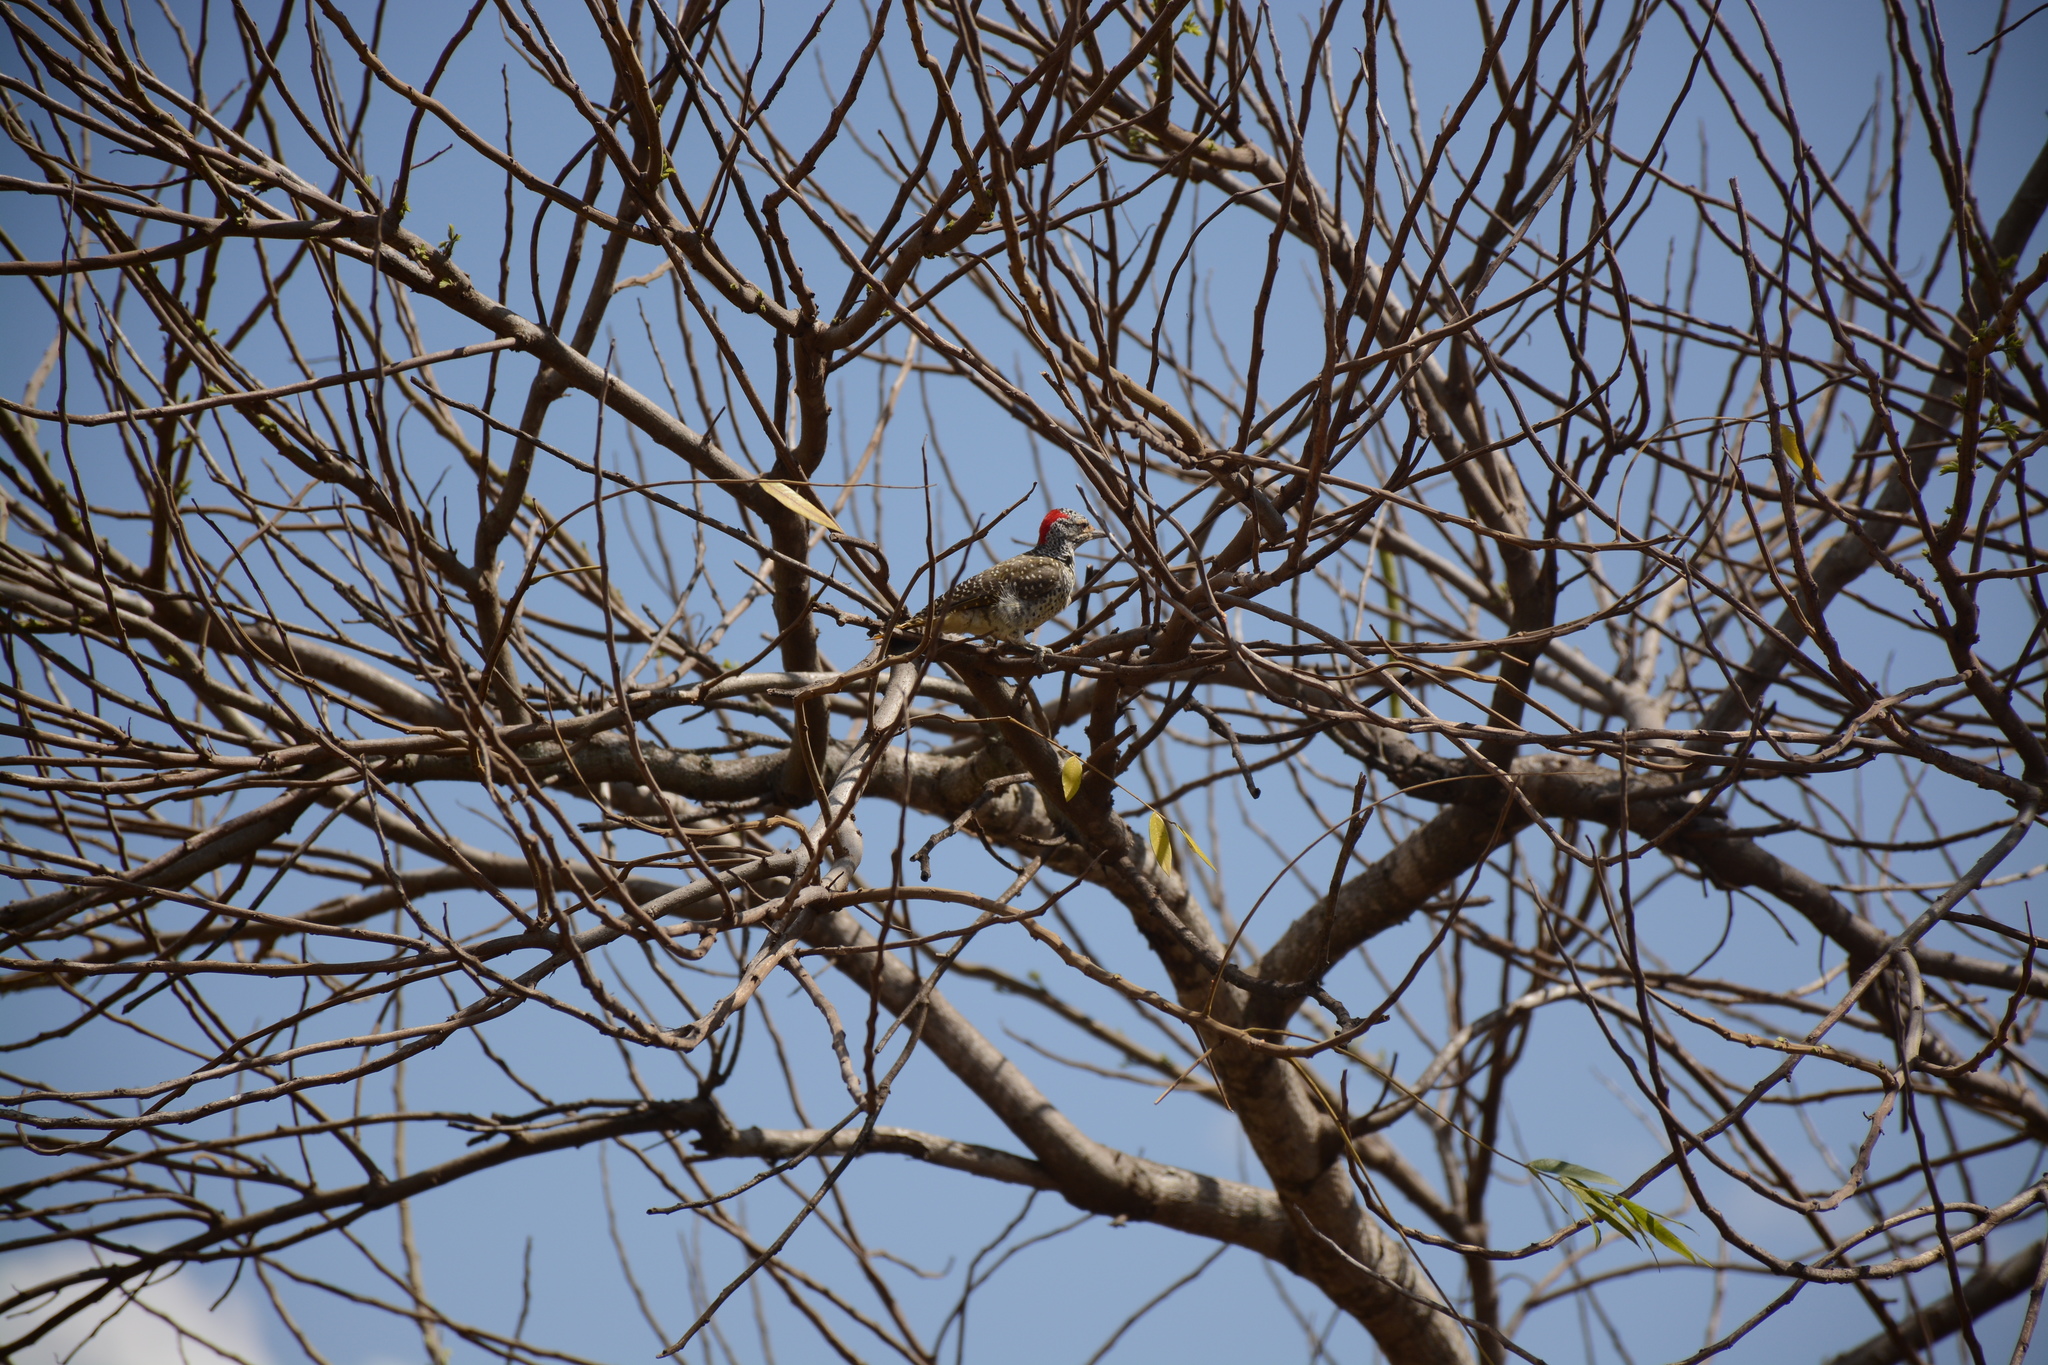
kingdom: Animalia
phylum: Chordata
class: Aves
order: Piciformes
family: Picidae
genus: Campethera
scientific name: Campethera nubica
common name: Nubian woodpecker
